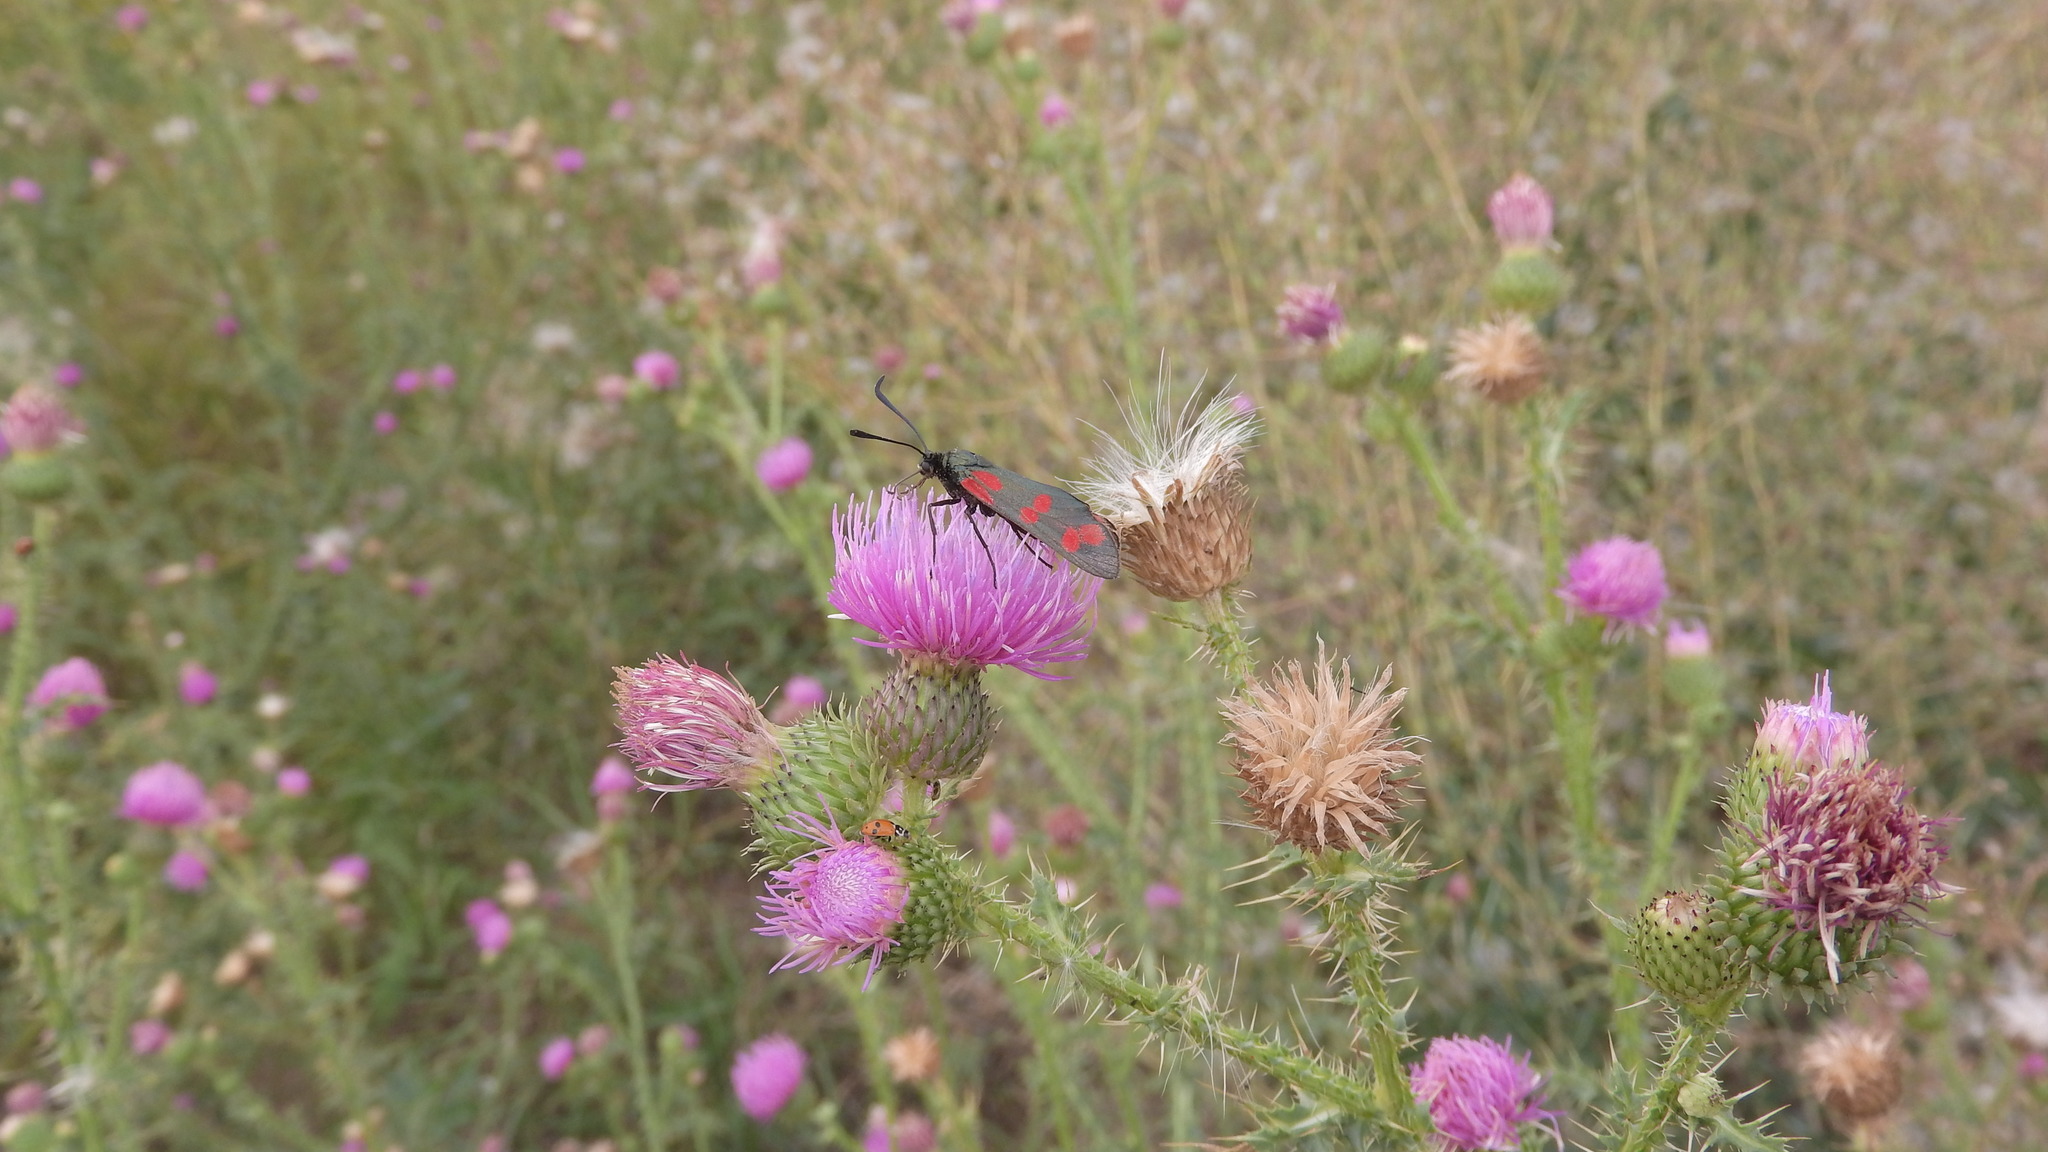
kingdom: Animalia
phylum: Arthropoda
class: Insecta
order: Lepidoptera
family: Zygaenidae
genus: Zygaena
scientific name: Zygaena filipendulae
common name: Six-spot burnet
